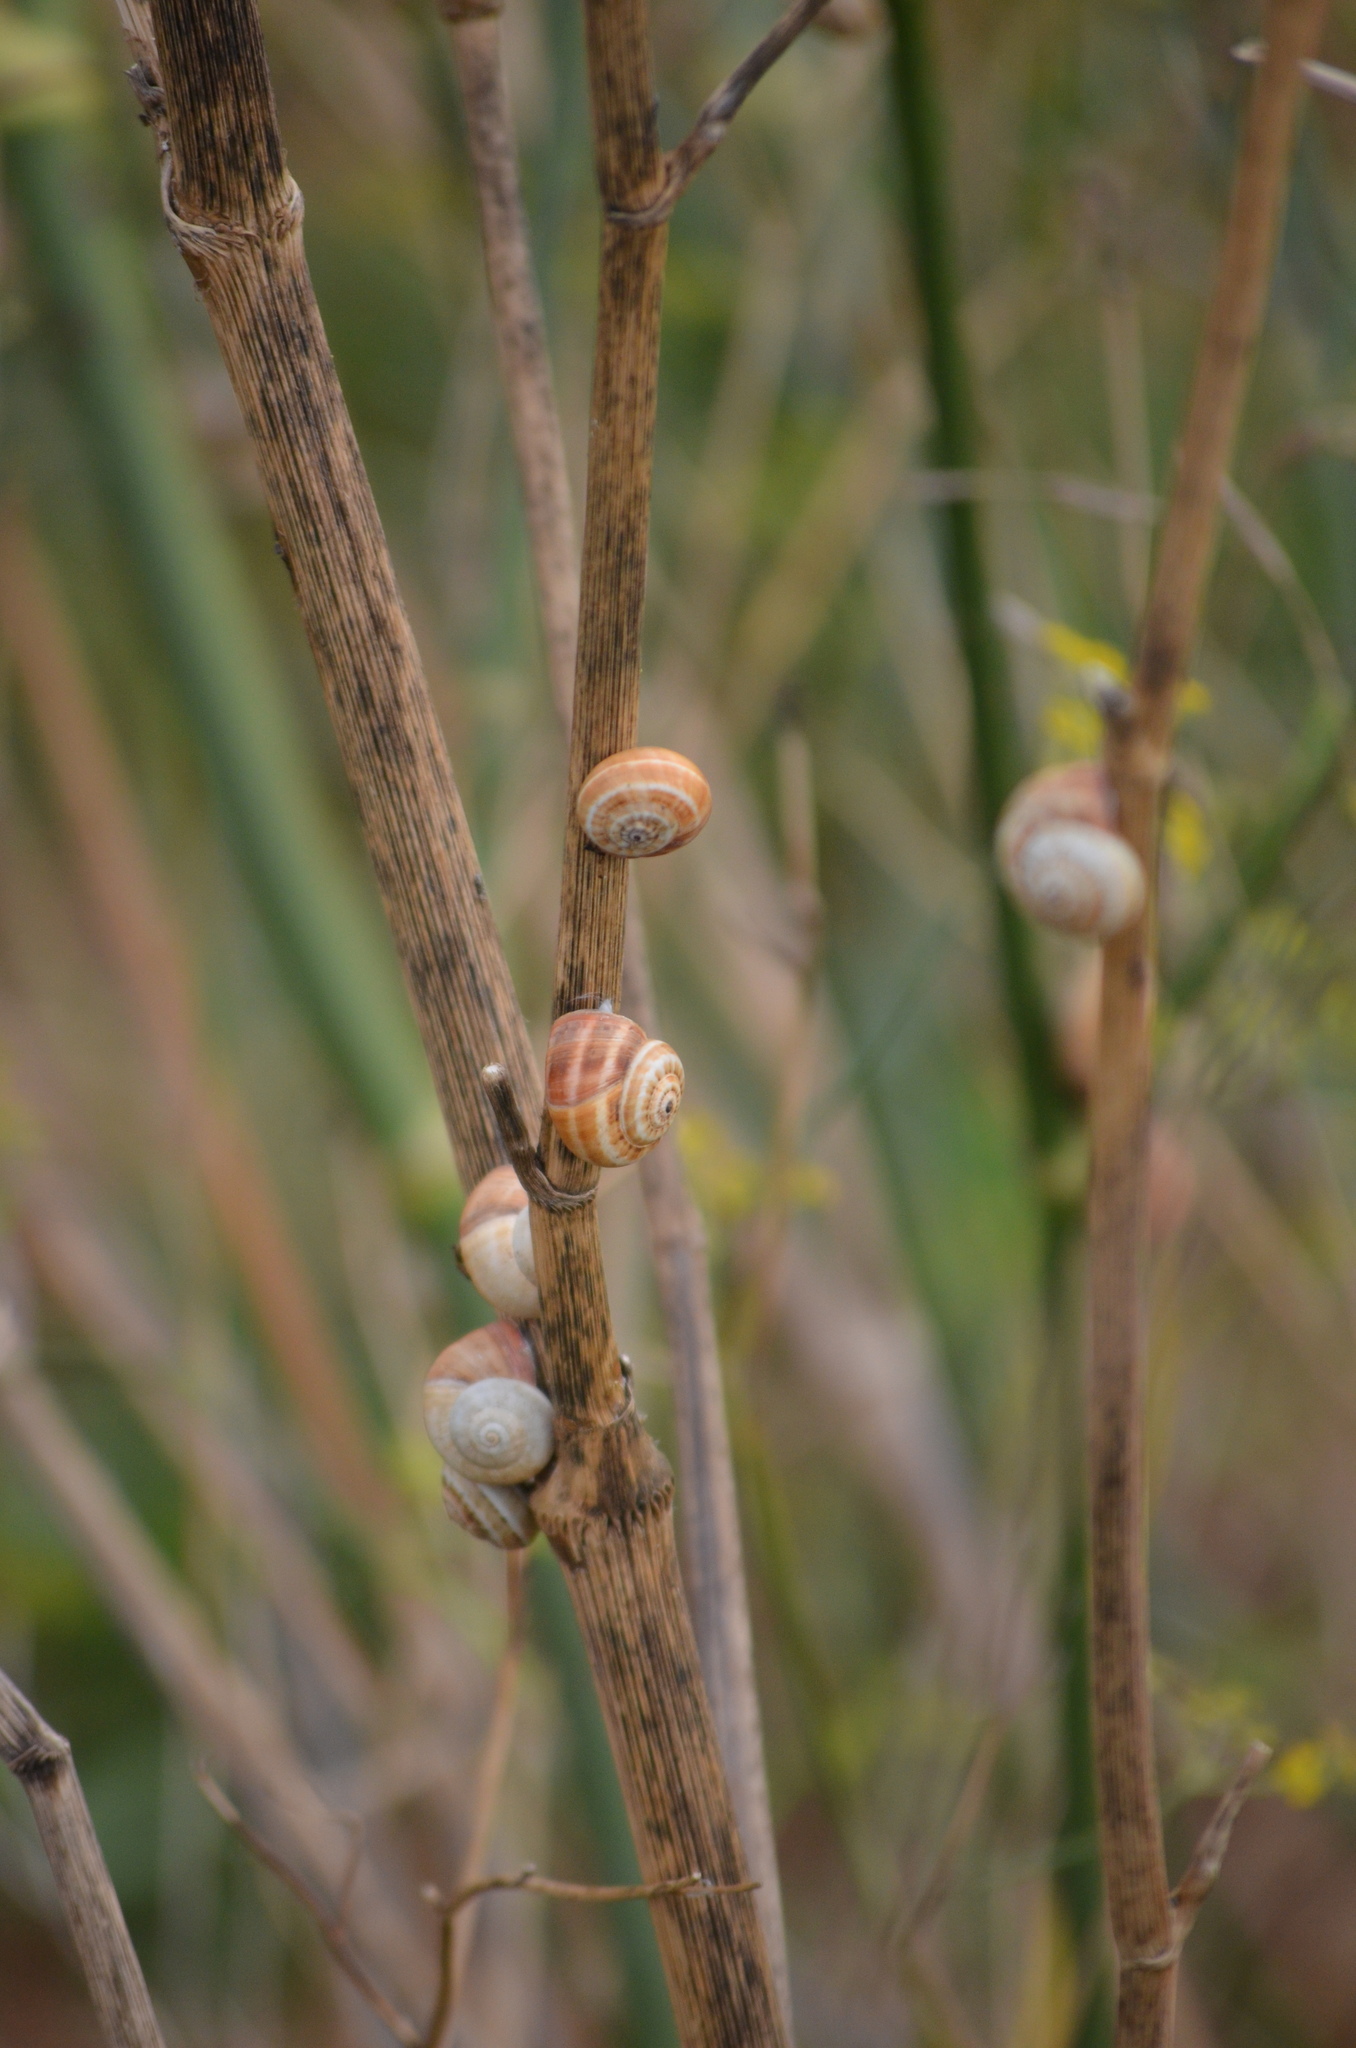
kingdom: Animalia
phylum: Mollusca
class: Gastropoda
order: Stylommatophora
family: Helicidae
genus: Theba
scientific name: Theba pisana
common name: White snail
